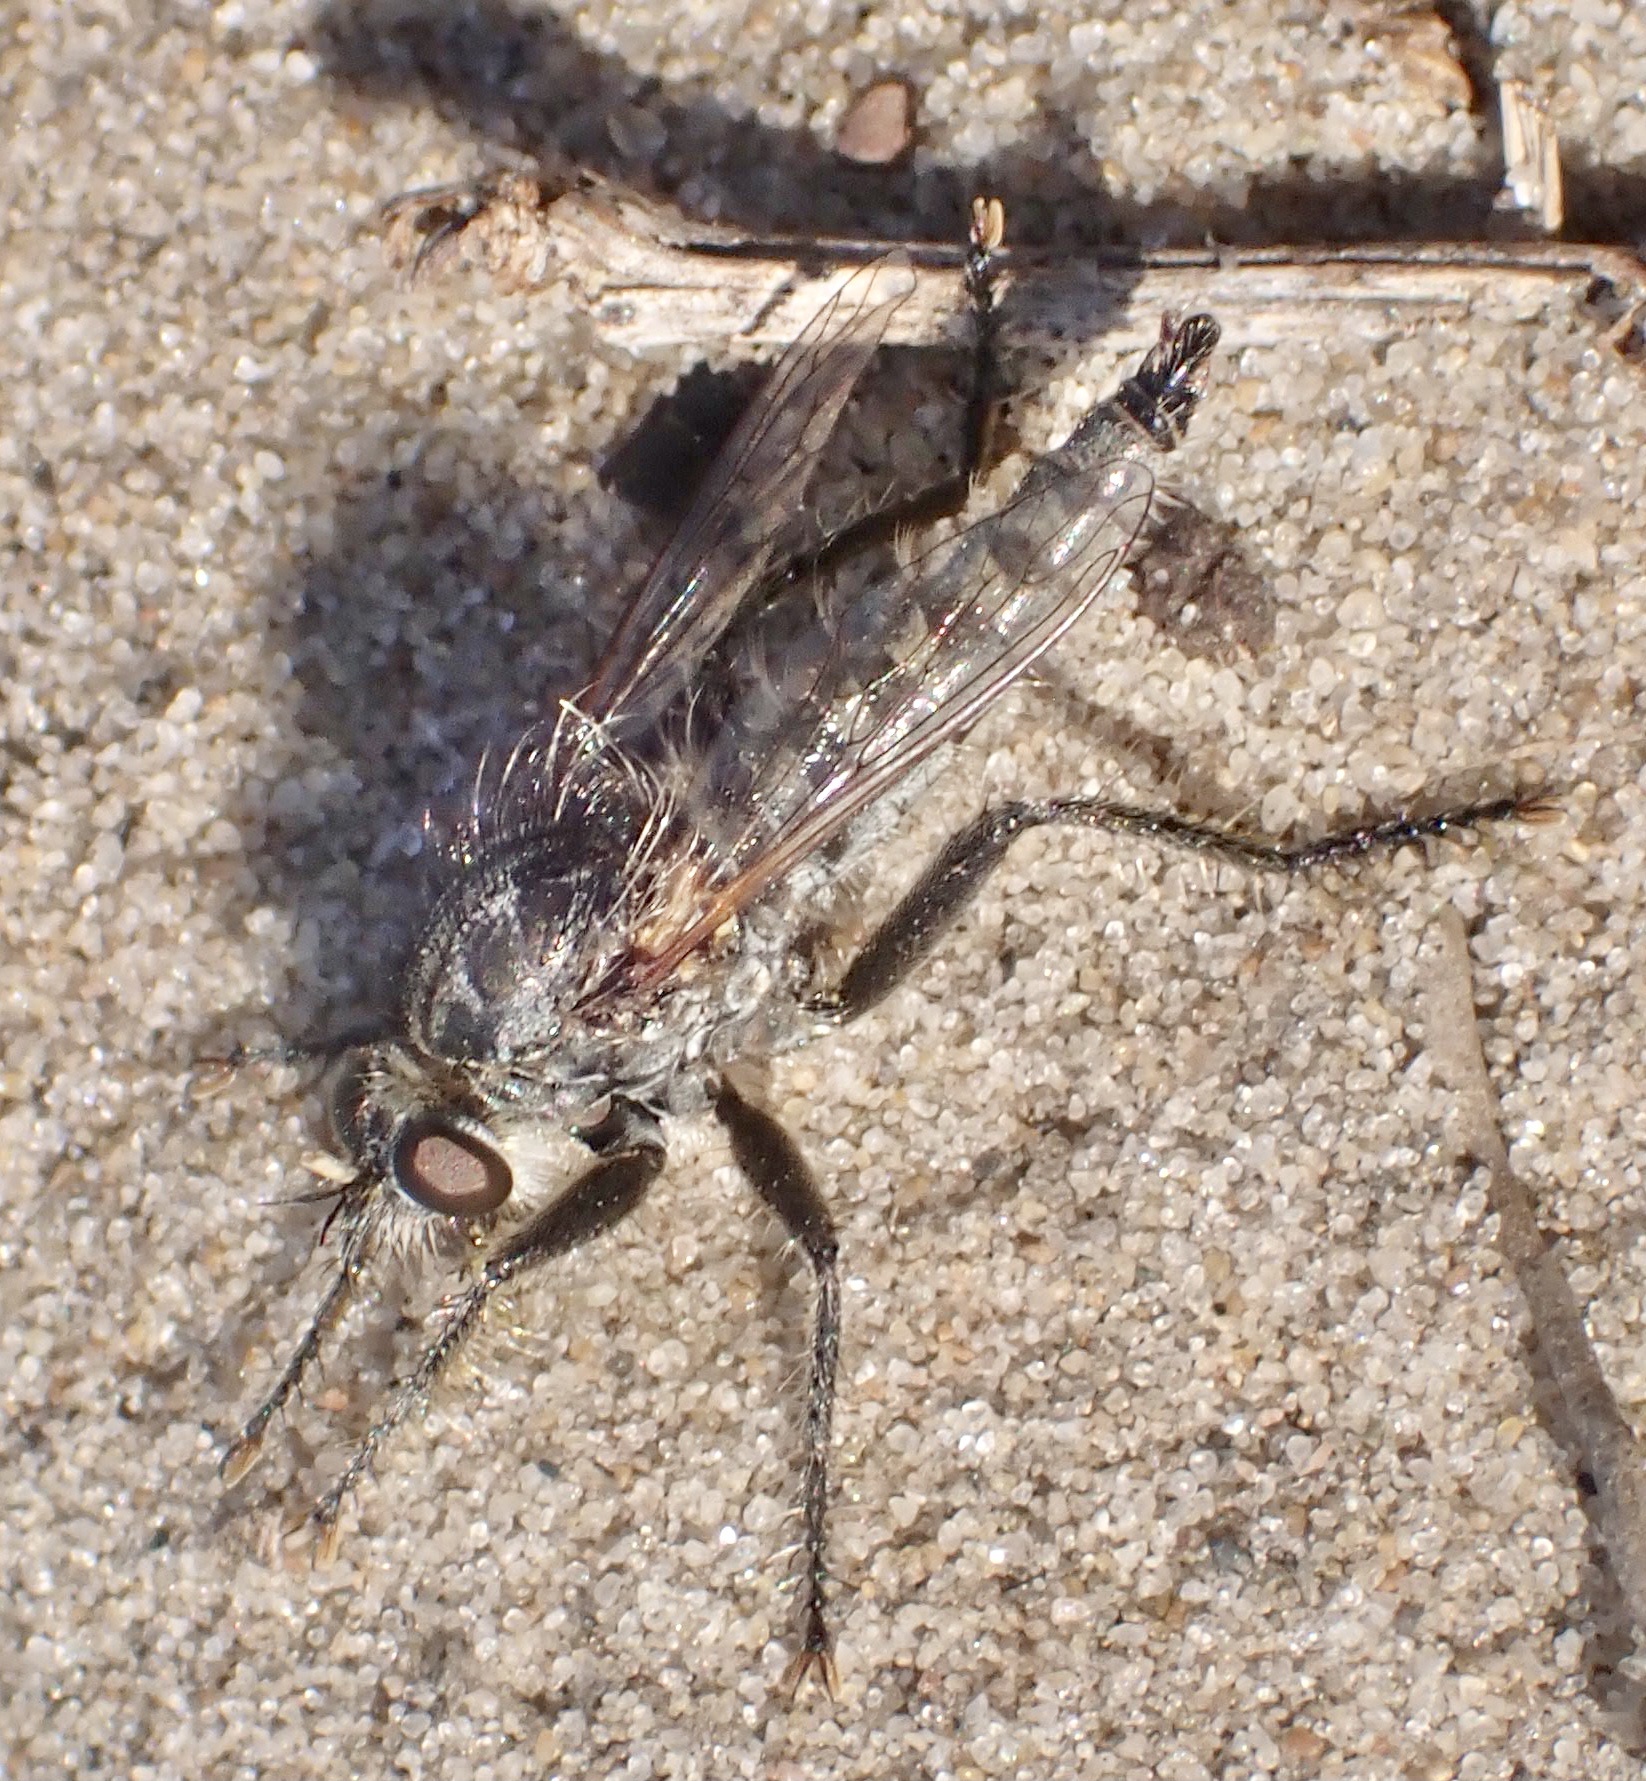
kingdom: Animalia
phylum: Arthropoda
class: Insecta
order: Diptera
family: Asilidae
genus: Dysmachus
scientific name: Dysmachus trigonus
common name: Fan-bristled robberfly
